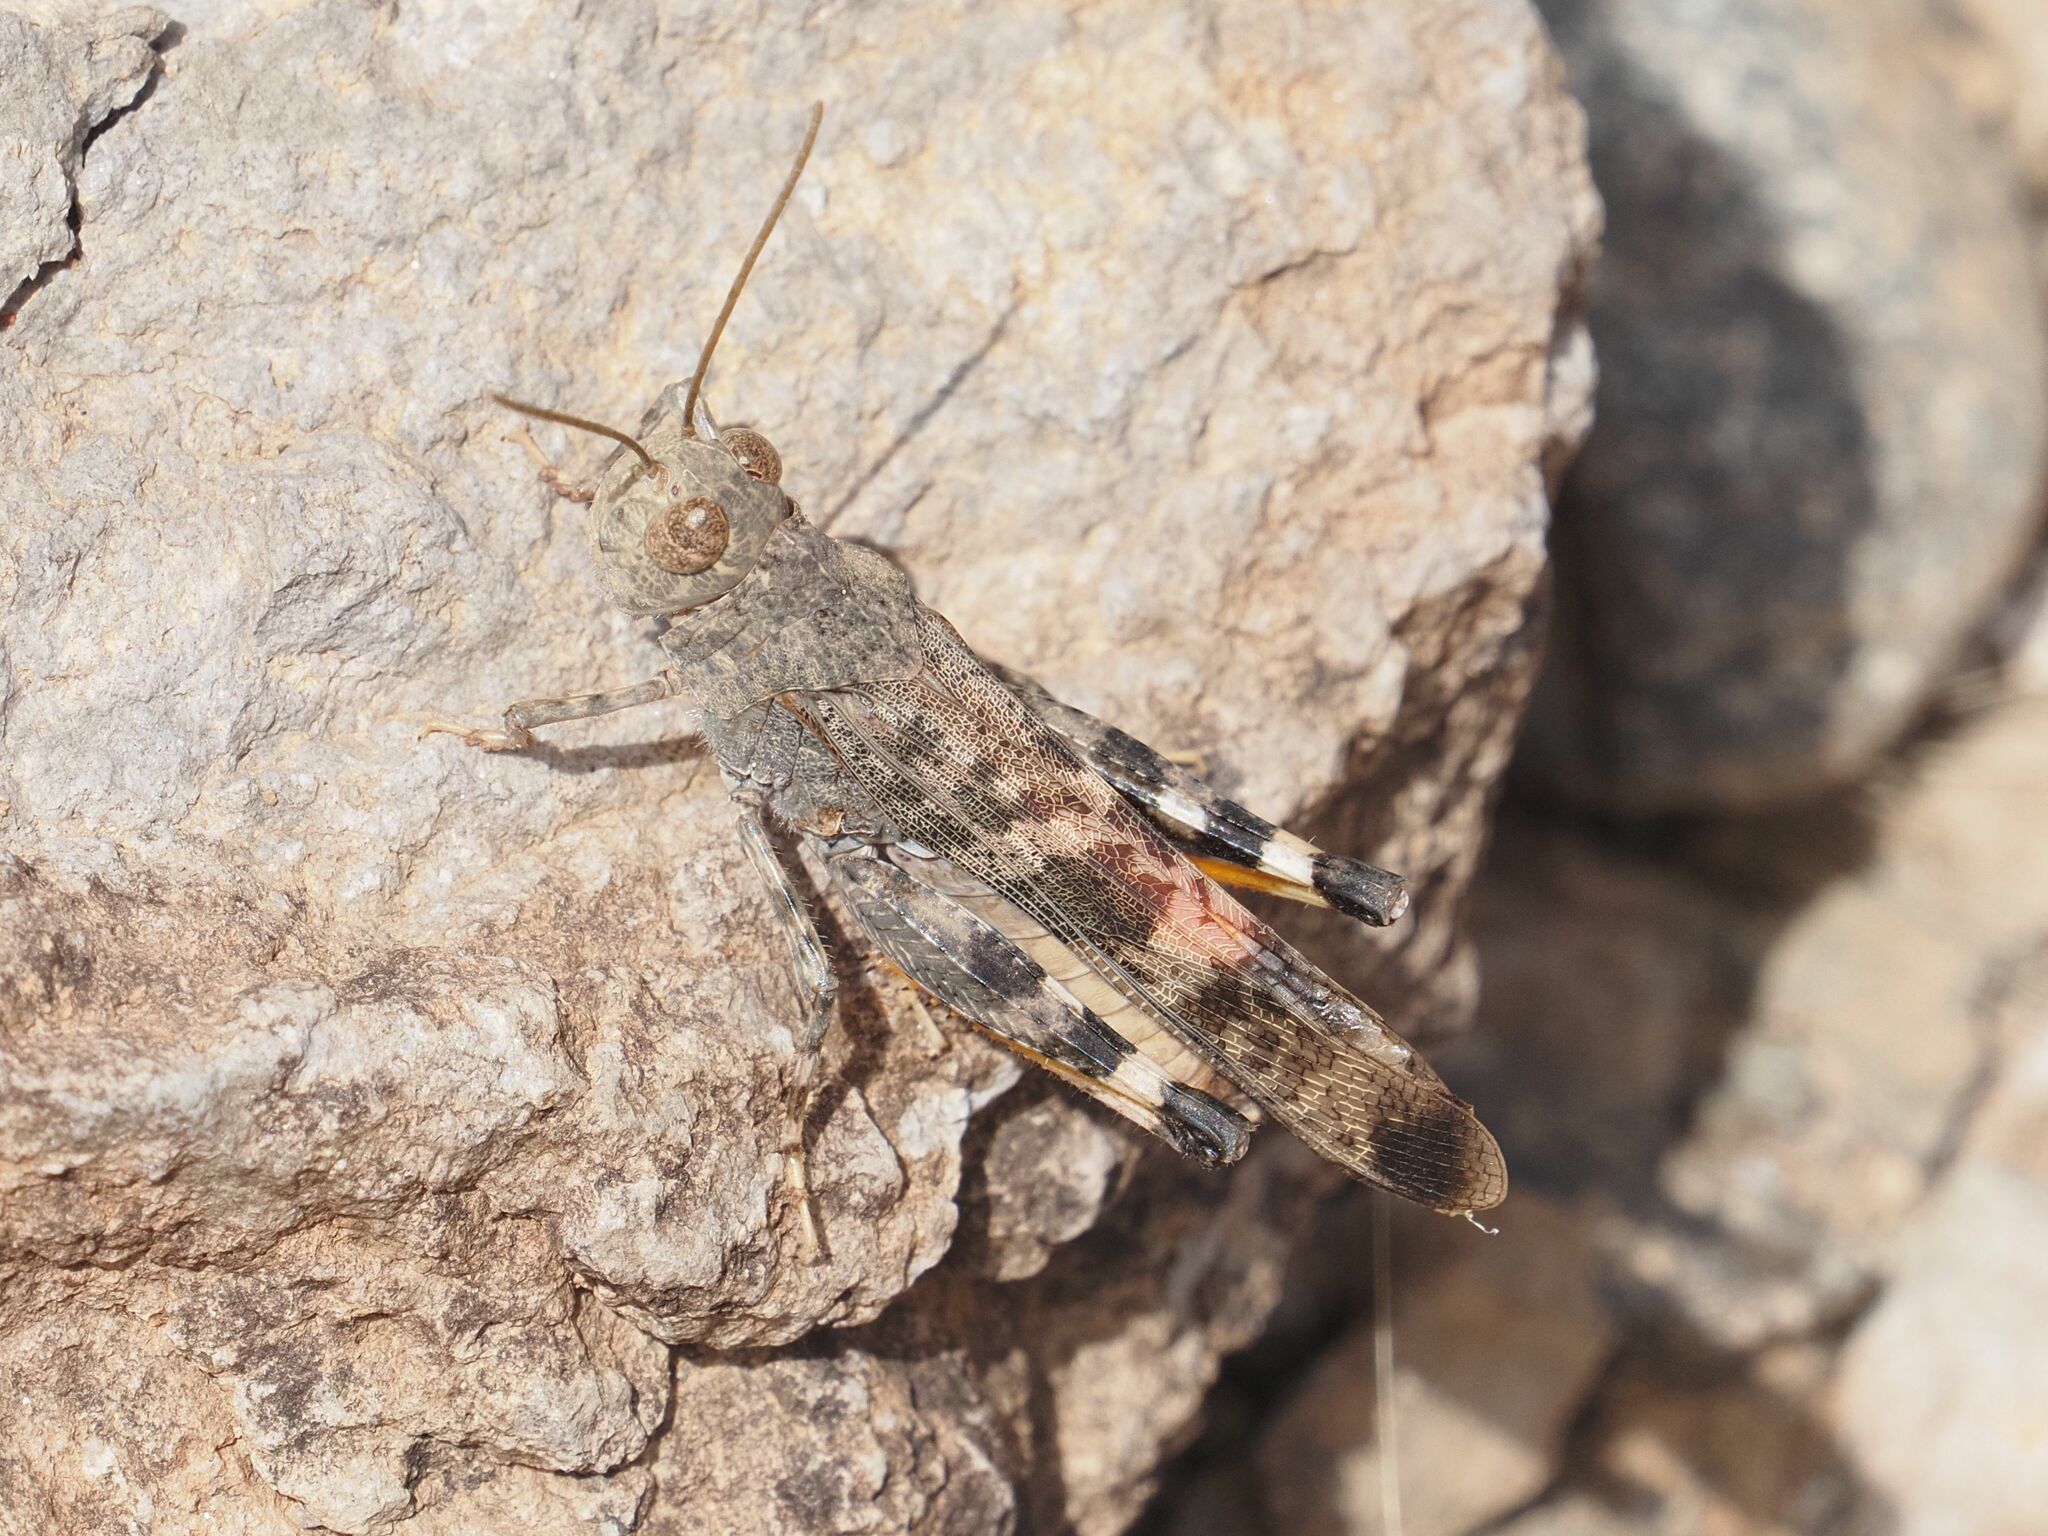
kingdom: Animalia
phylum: Arthropoda
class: Insecta
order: Orthoptera
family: Acrididae
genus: Scintharista
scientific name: Scintharista notabilis
